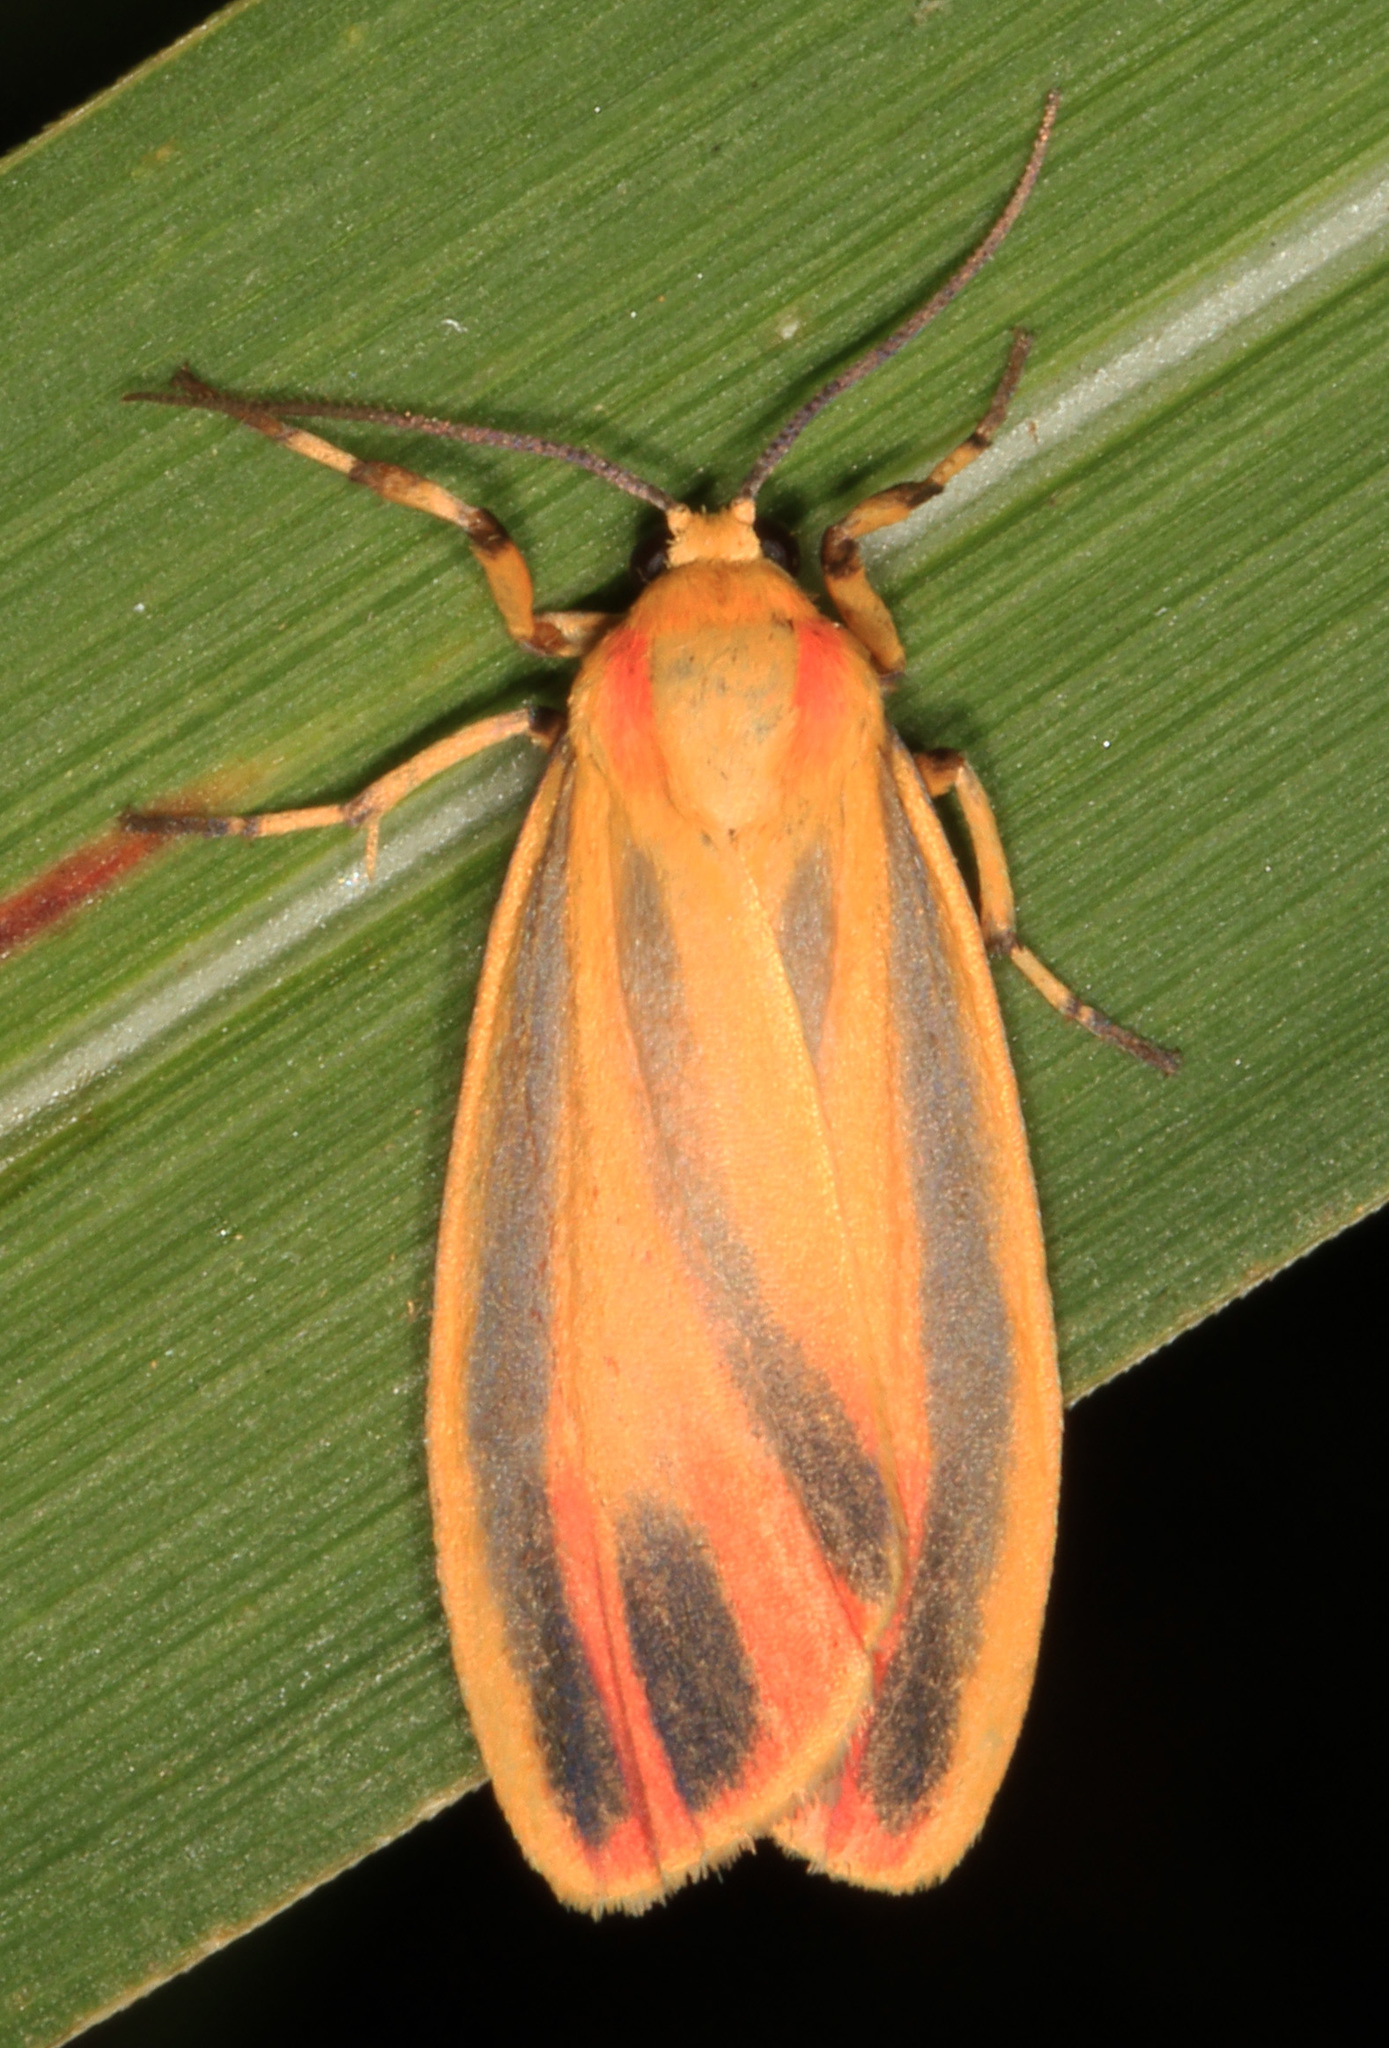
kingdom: Animalia
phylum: Arthropoda
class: Insecta
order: Lepidoptera
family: Erebidae
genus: Hypoprepia
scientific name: Hypoprepia fucosa
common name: Painted lichen moth
